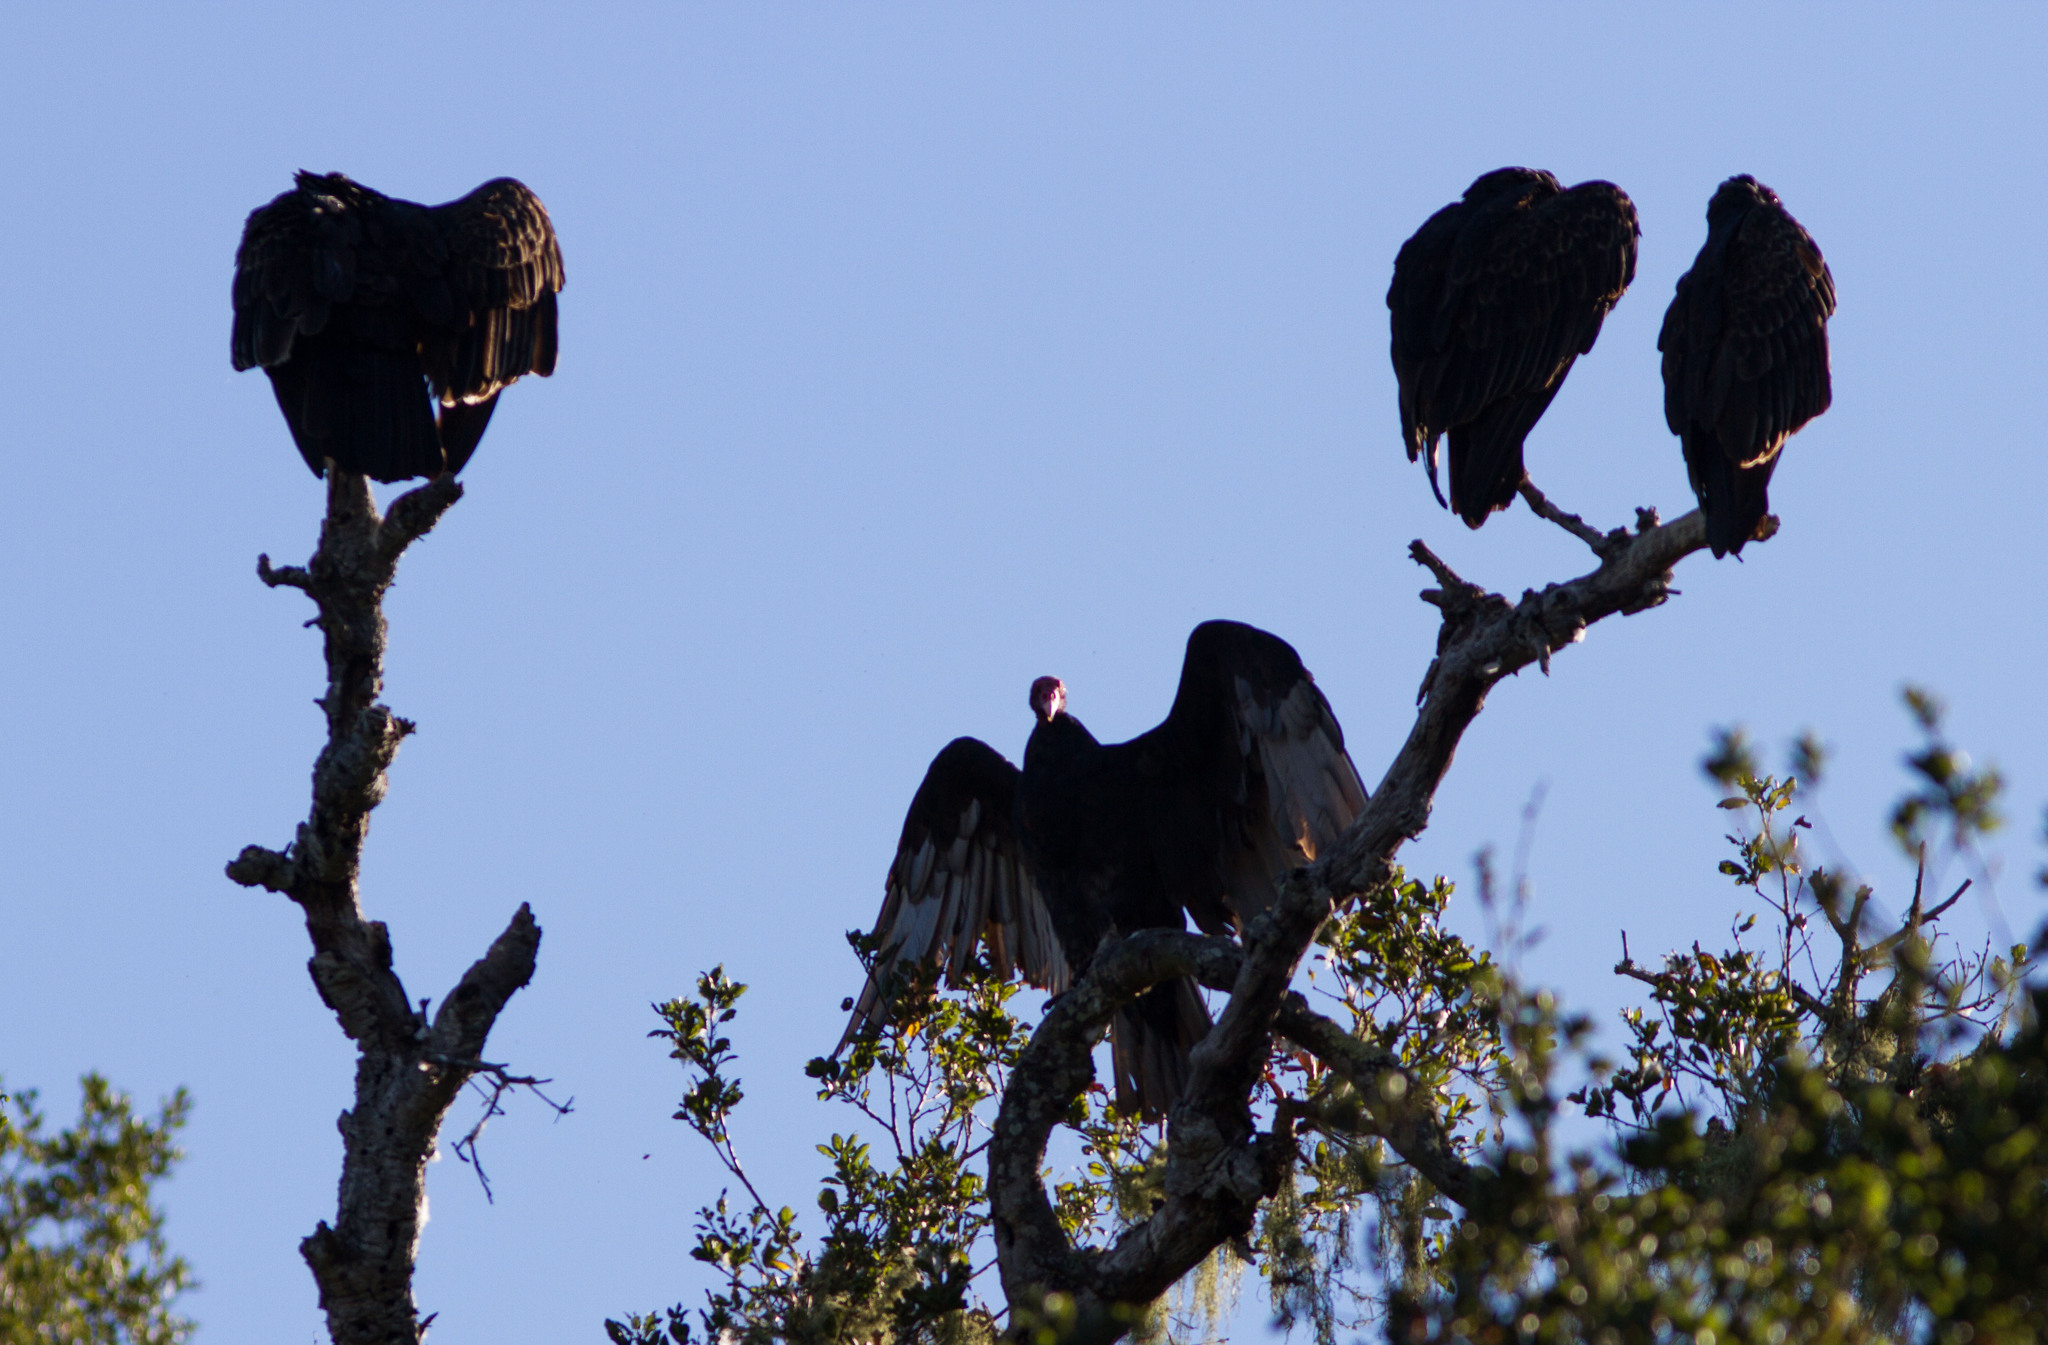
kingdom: Animalia
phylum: Chordata
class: Aves
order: Accipitriformes
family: Cathartidae
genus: Cathartes
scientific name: Cathartes aura
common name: Turkey vulture
